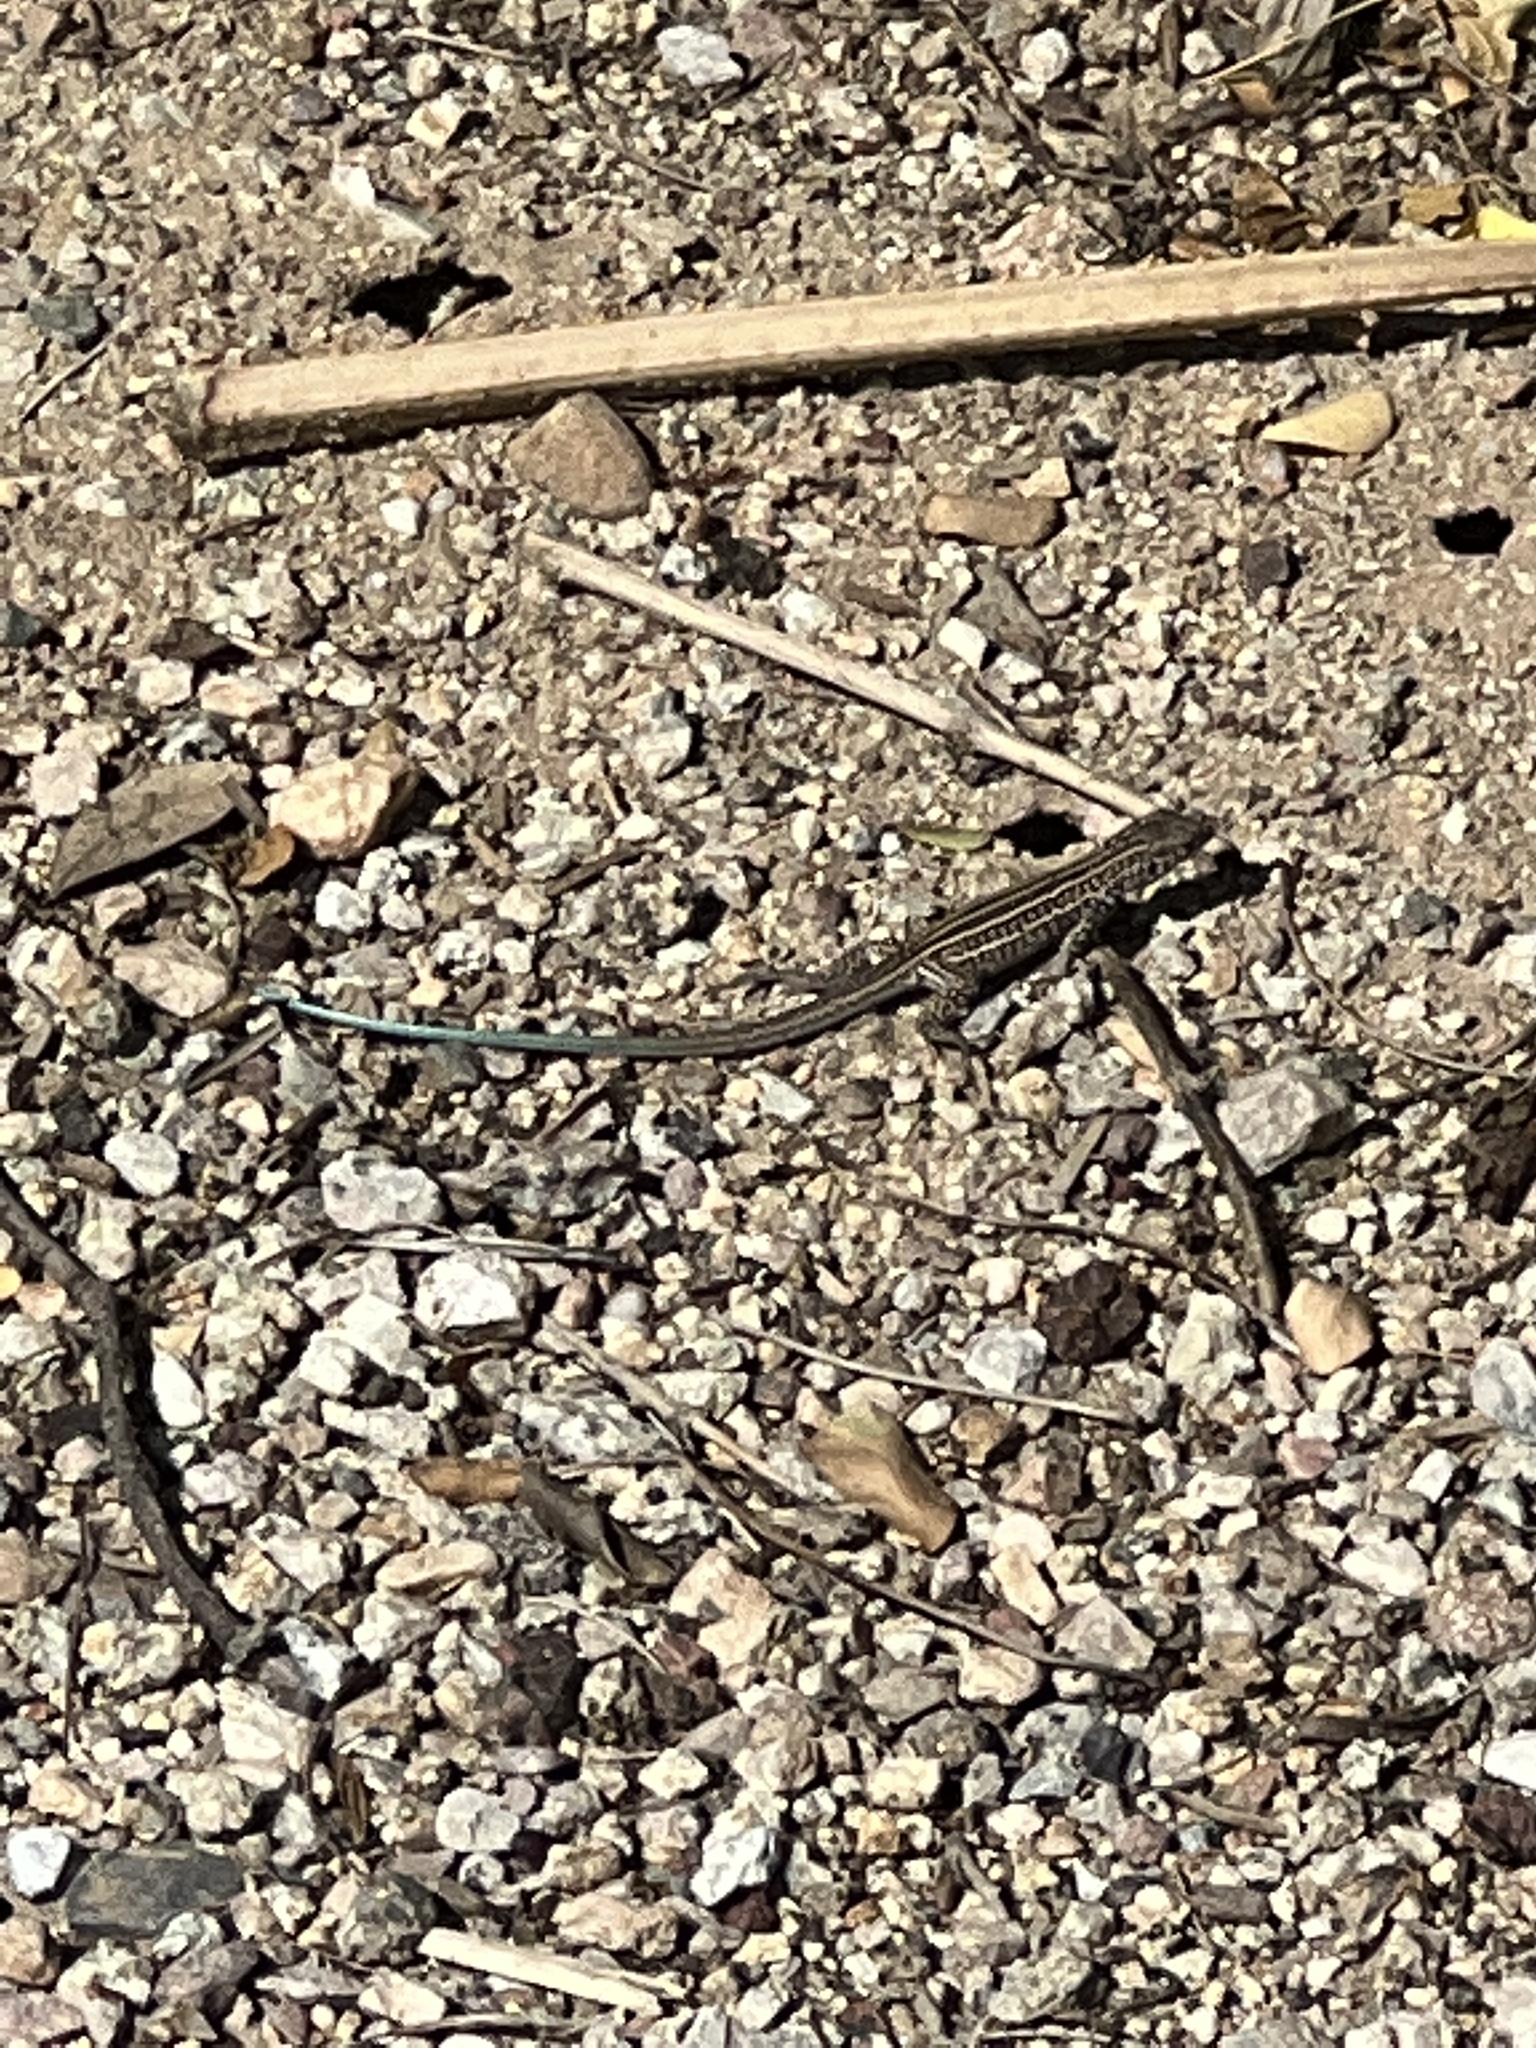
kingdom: Animalia
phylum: Chordata
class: Squamata
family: Teiidae
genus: Aspidoscelis
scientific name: Aspidoscelis tigris
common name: Tiger whiptail
